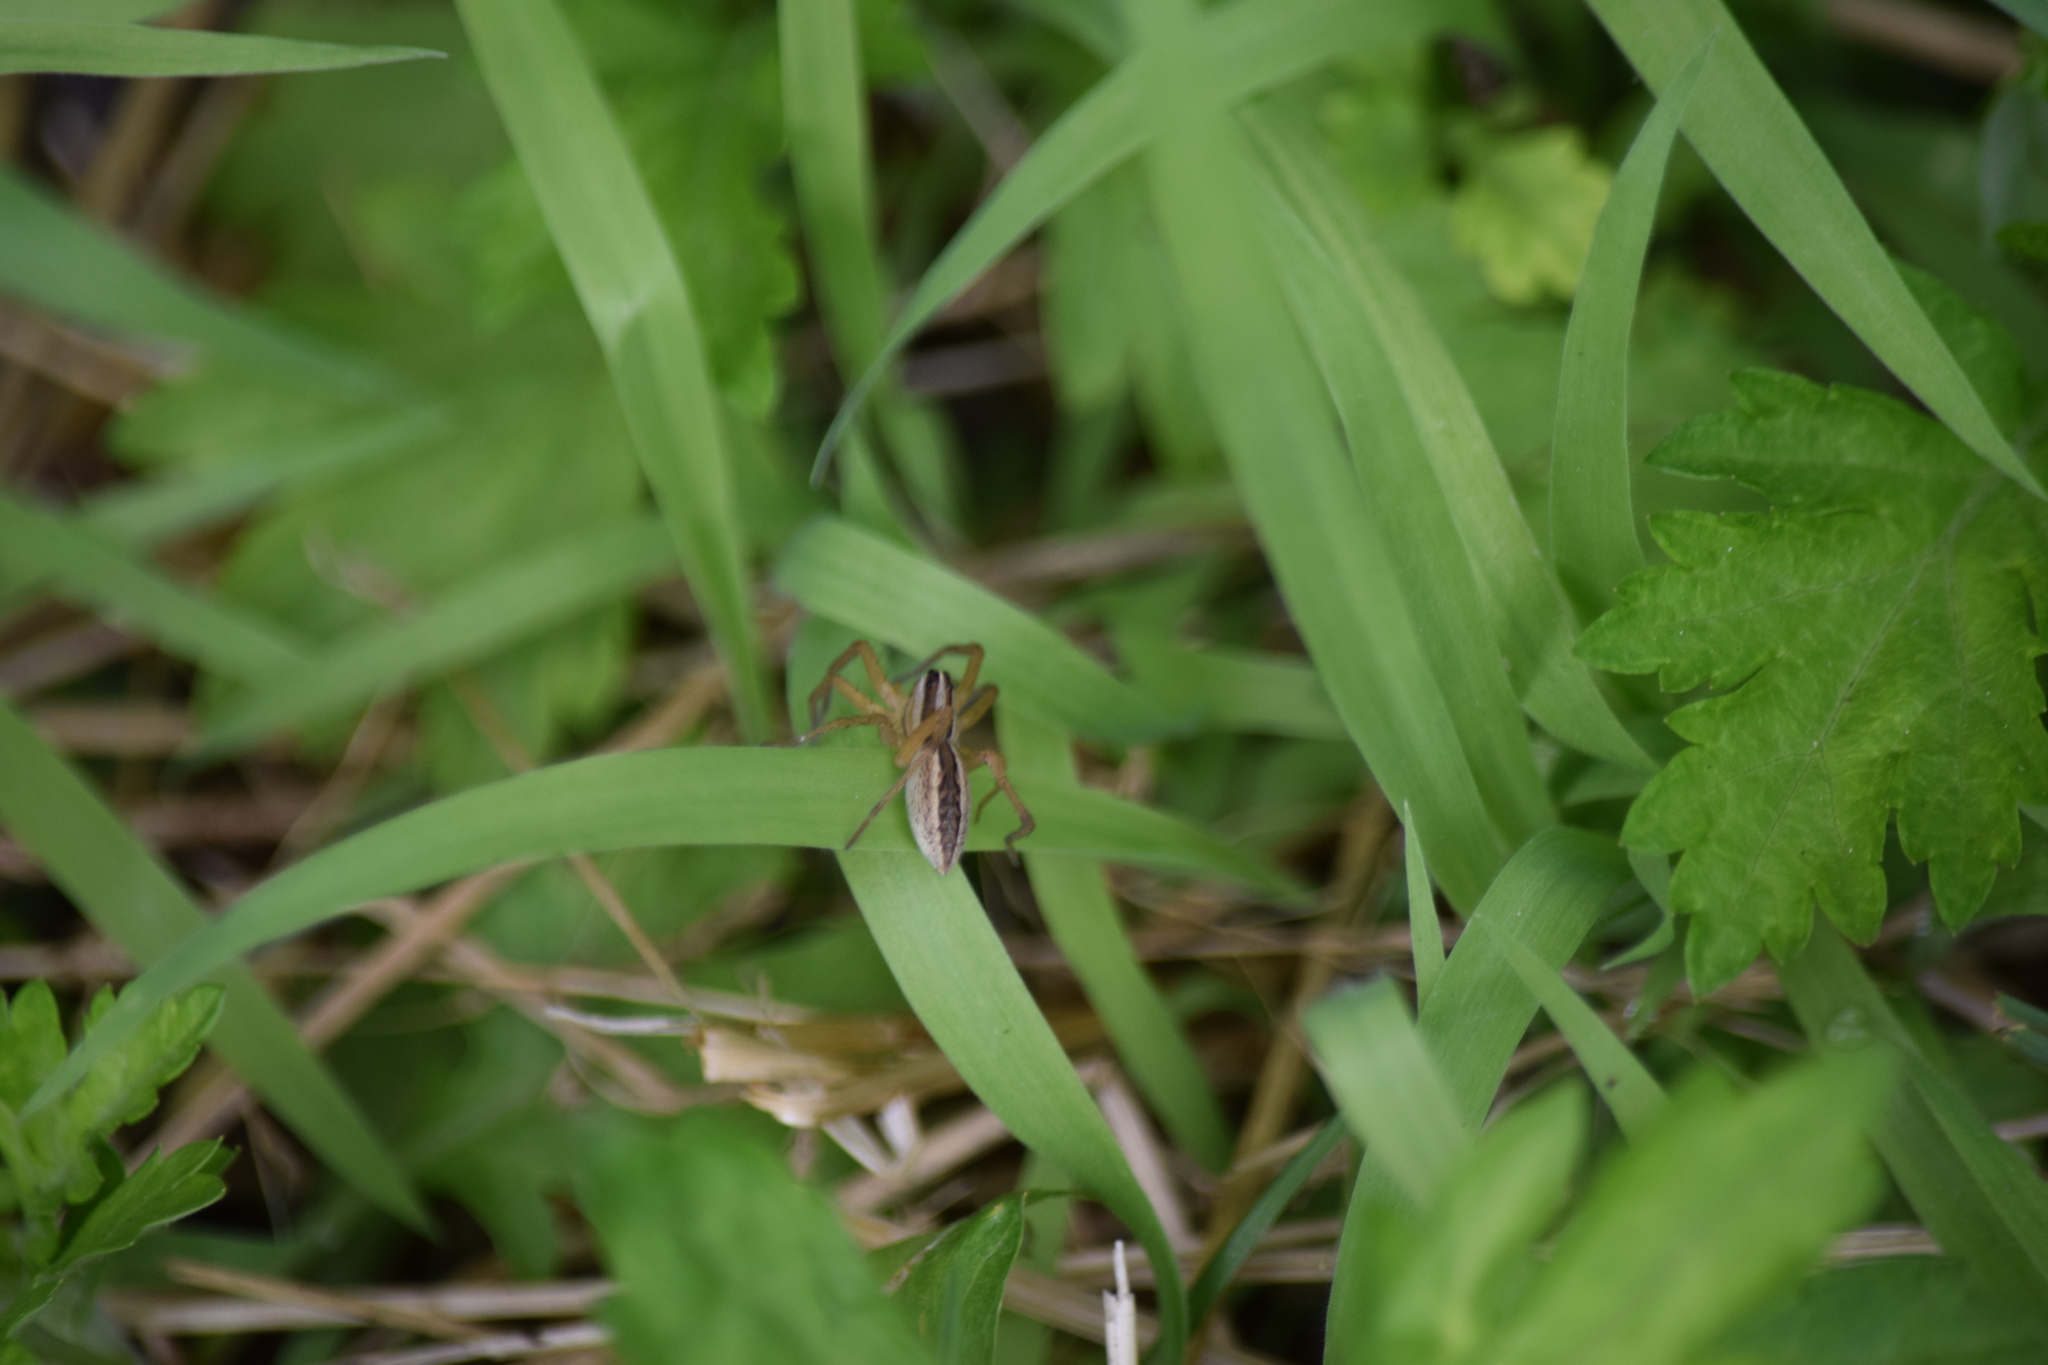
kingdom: Animalia
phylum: Arthropoda
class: Arachnida
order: Araneae
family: Lycosidae
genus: Rabidosa
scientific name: Rabidosa rabida
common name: Rabid wolf spider
